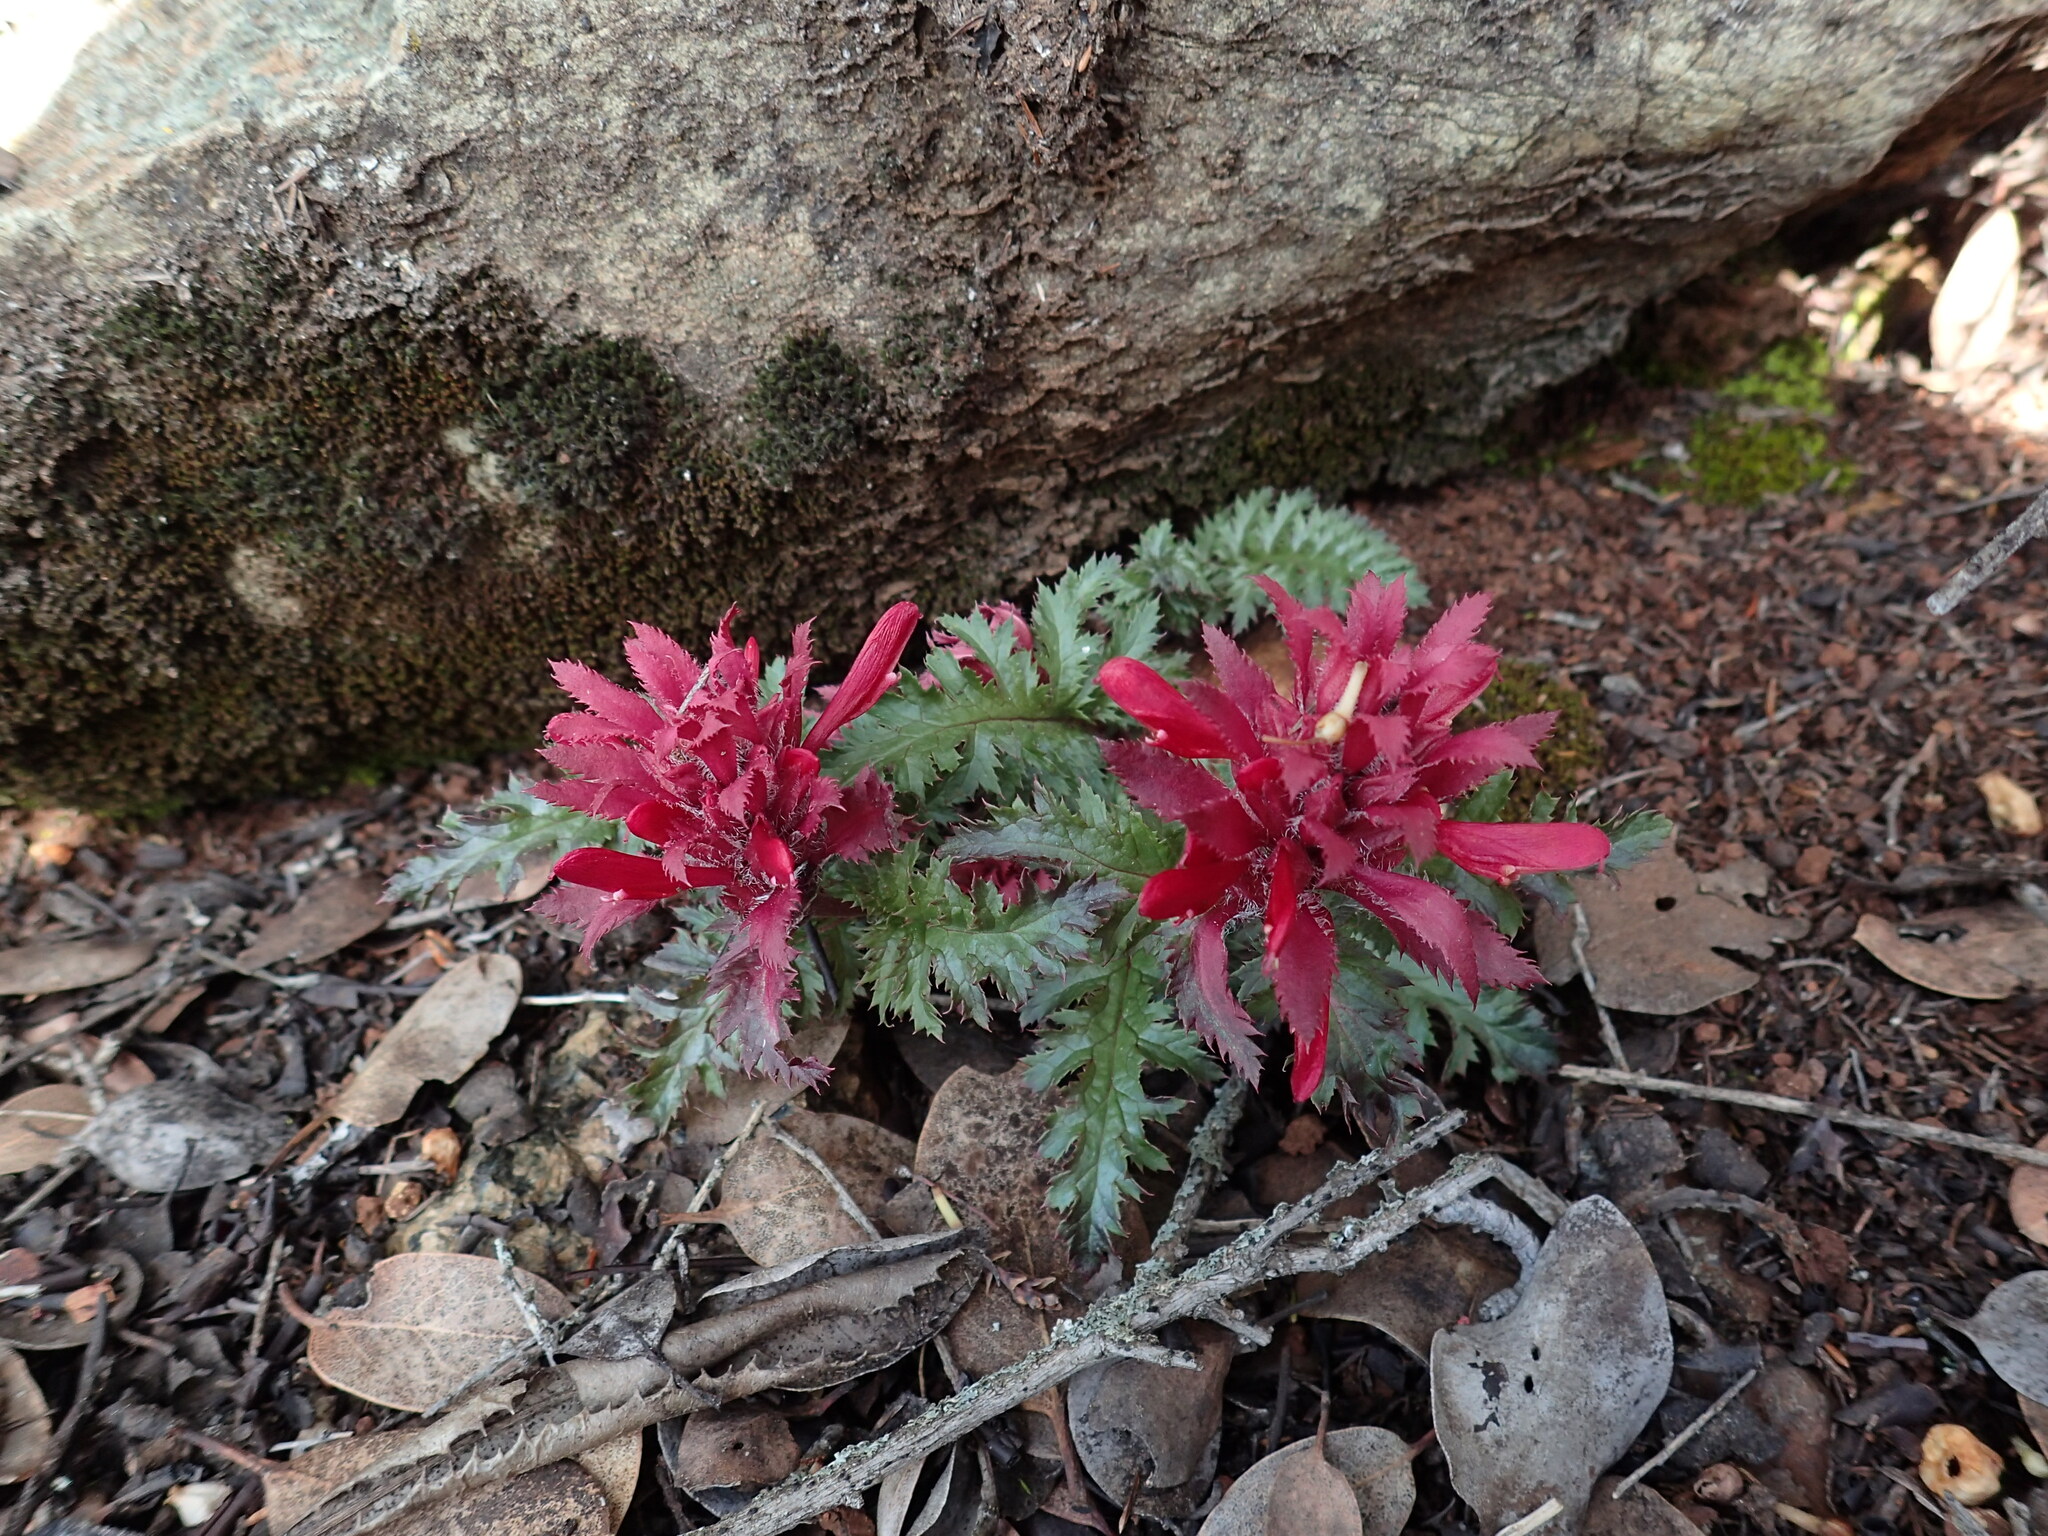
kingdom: Plantae
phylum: Tracheophyta
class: Magnoliopsida
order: Lamiales
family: Orobanchaceae
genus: Pedicularis
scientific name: Pedicularis densiflora
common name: Indian warrior
